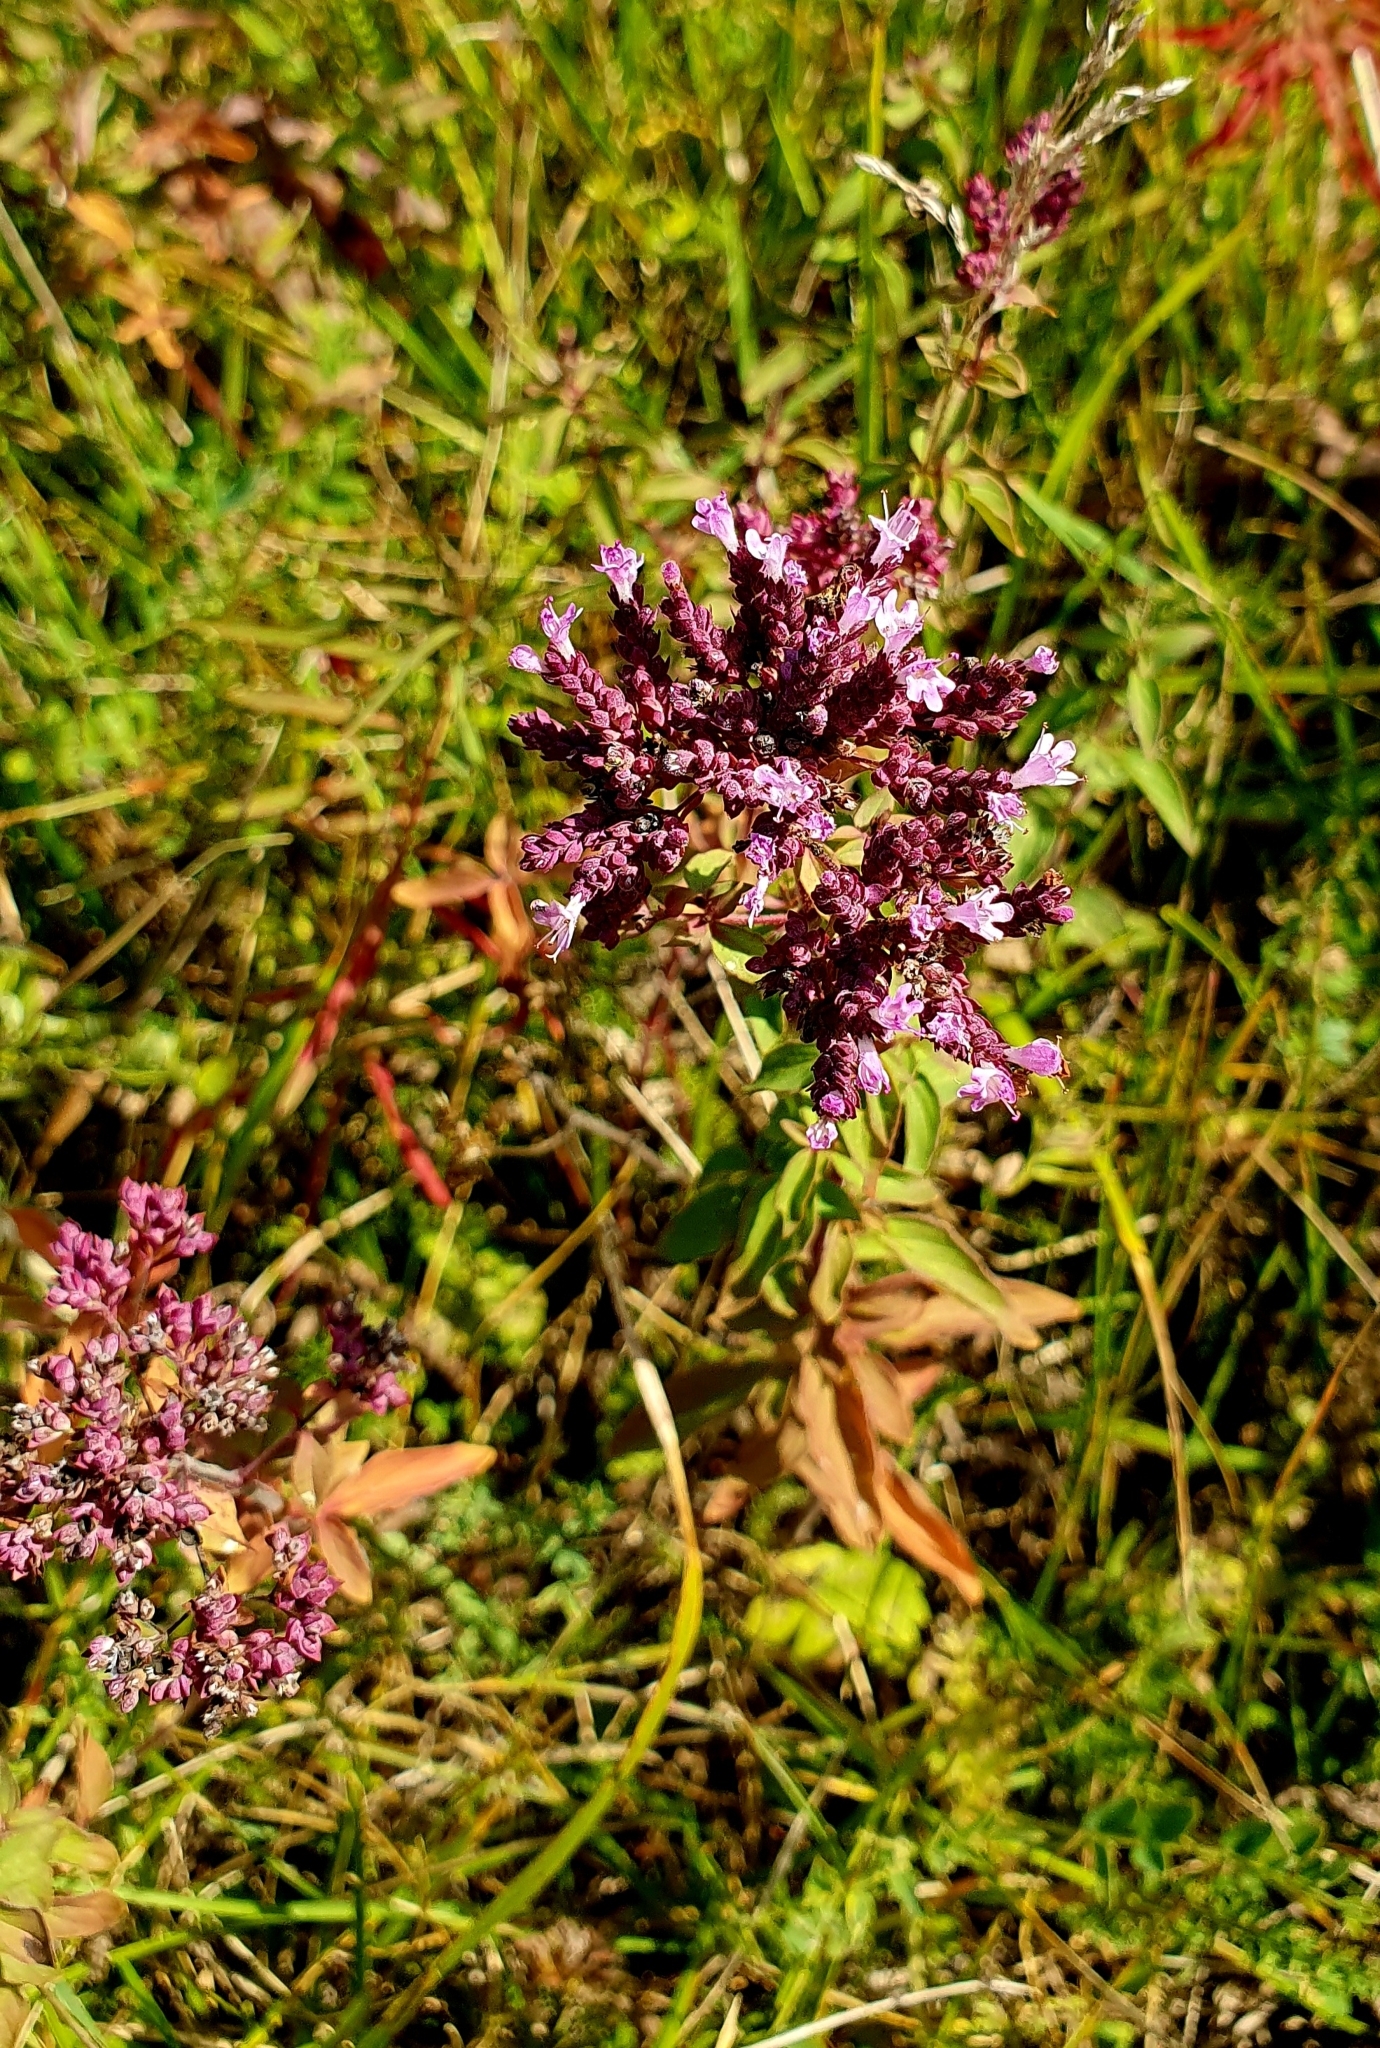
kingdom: Plantae
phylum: Tracheophyta
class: Magnoliopsida
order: Lamiales
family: Lamiaceae
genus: Origanum
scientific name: Origanum vulgare
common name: Wild marjoram
